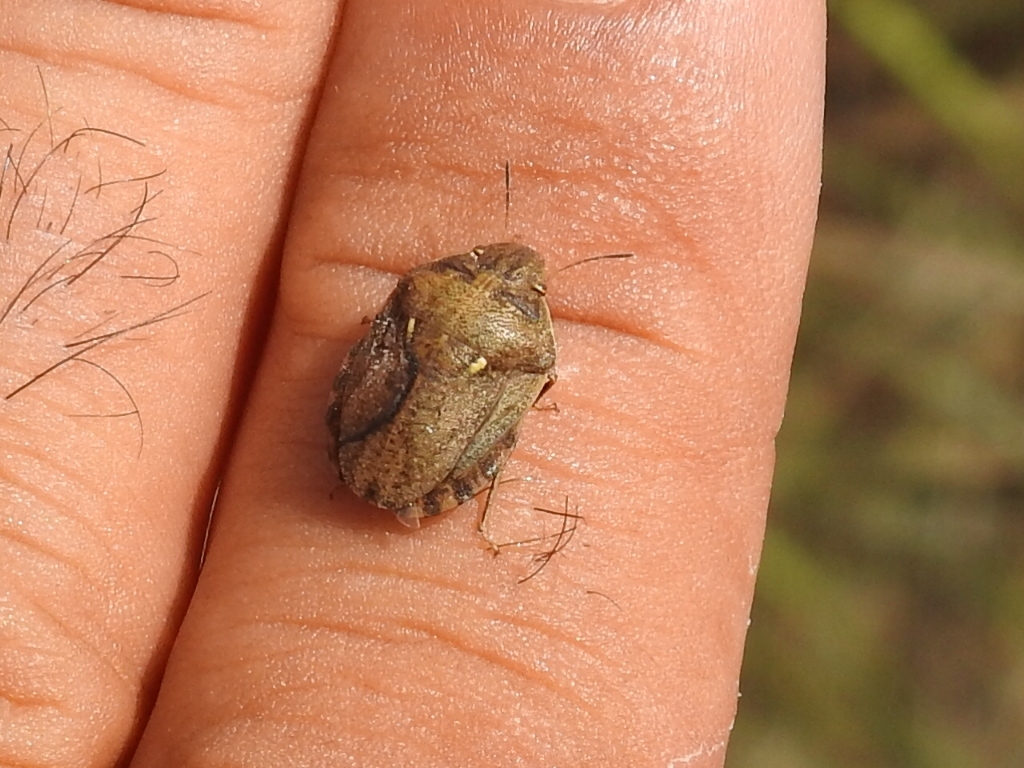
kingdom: Animalia
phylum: Arthropoda
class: Insecta
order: Hemiptera
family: Scutelleridae
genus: Eurygaster
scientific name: Eurygaster maura
